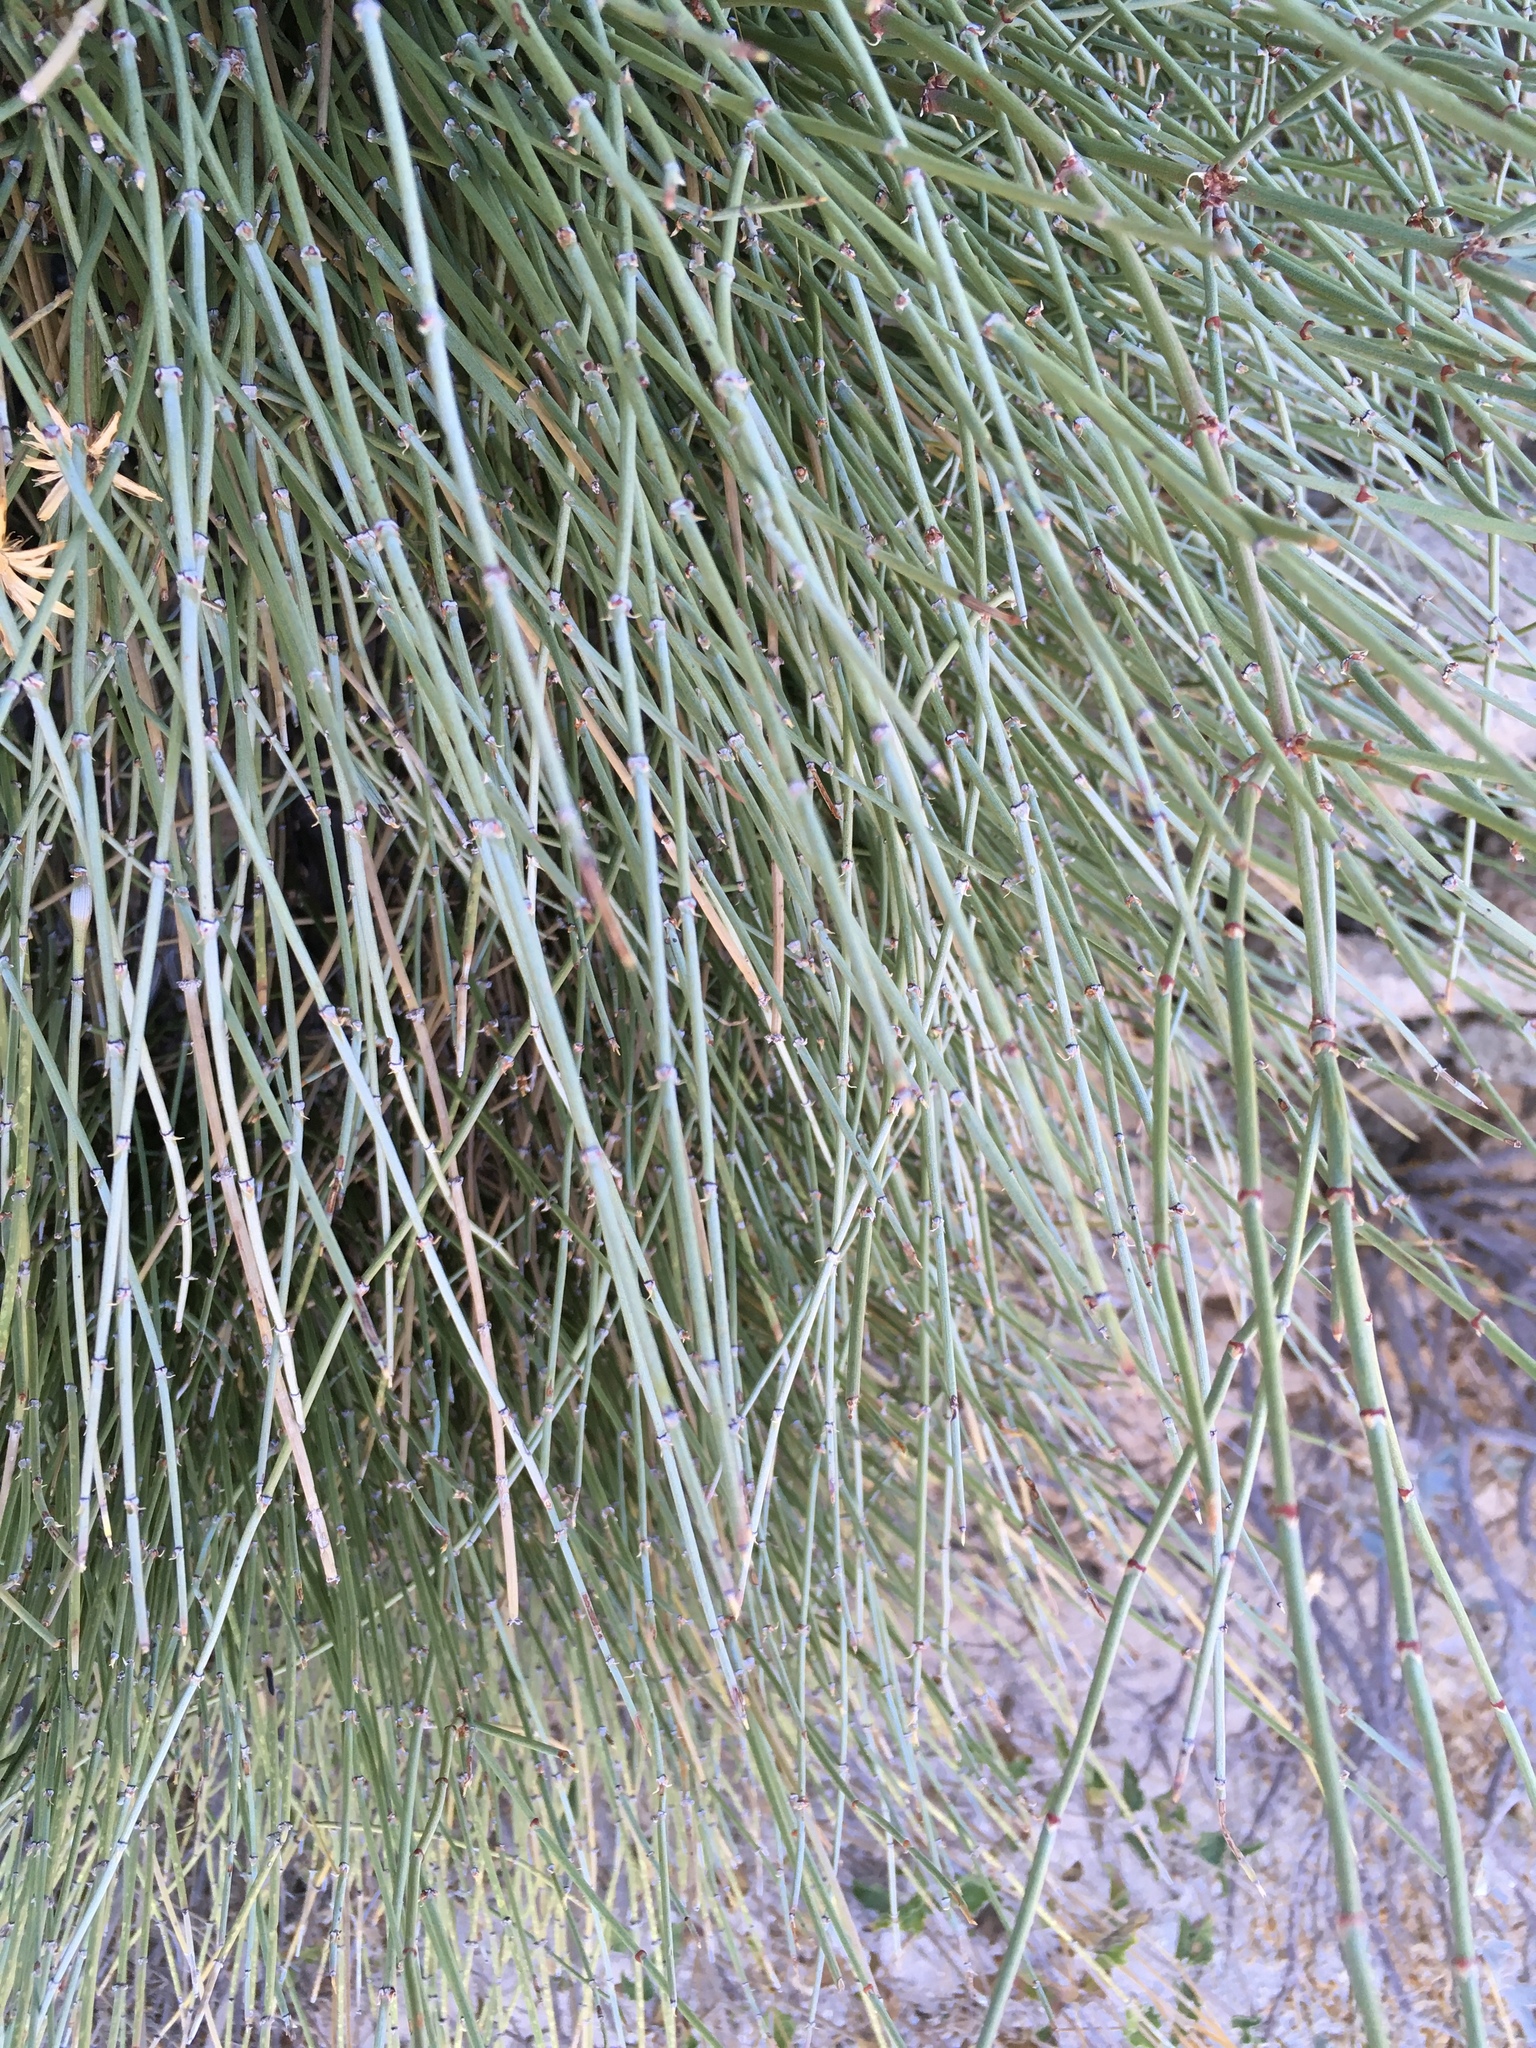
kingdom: Plantae
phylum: Tracheophyta
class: Gnetopsida
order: Ephedrales
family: Ephedraceae
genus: Ephedra
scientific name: Ephedra aspera
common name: Boundary ephedra
